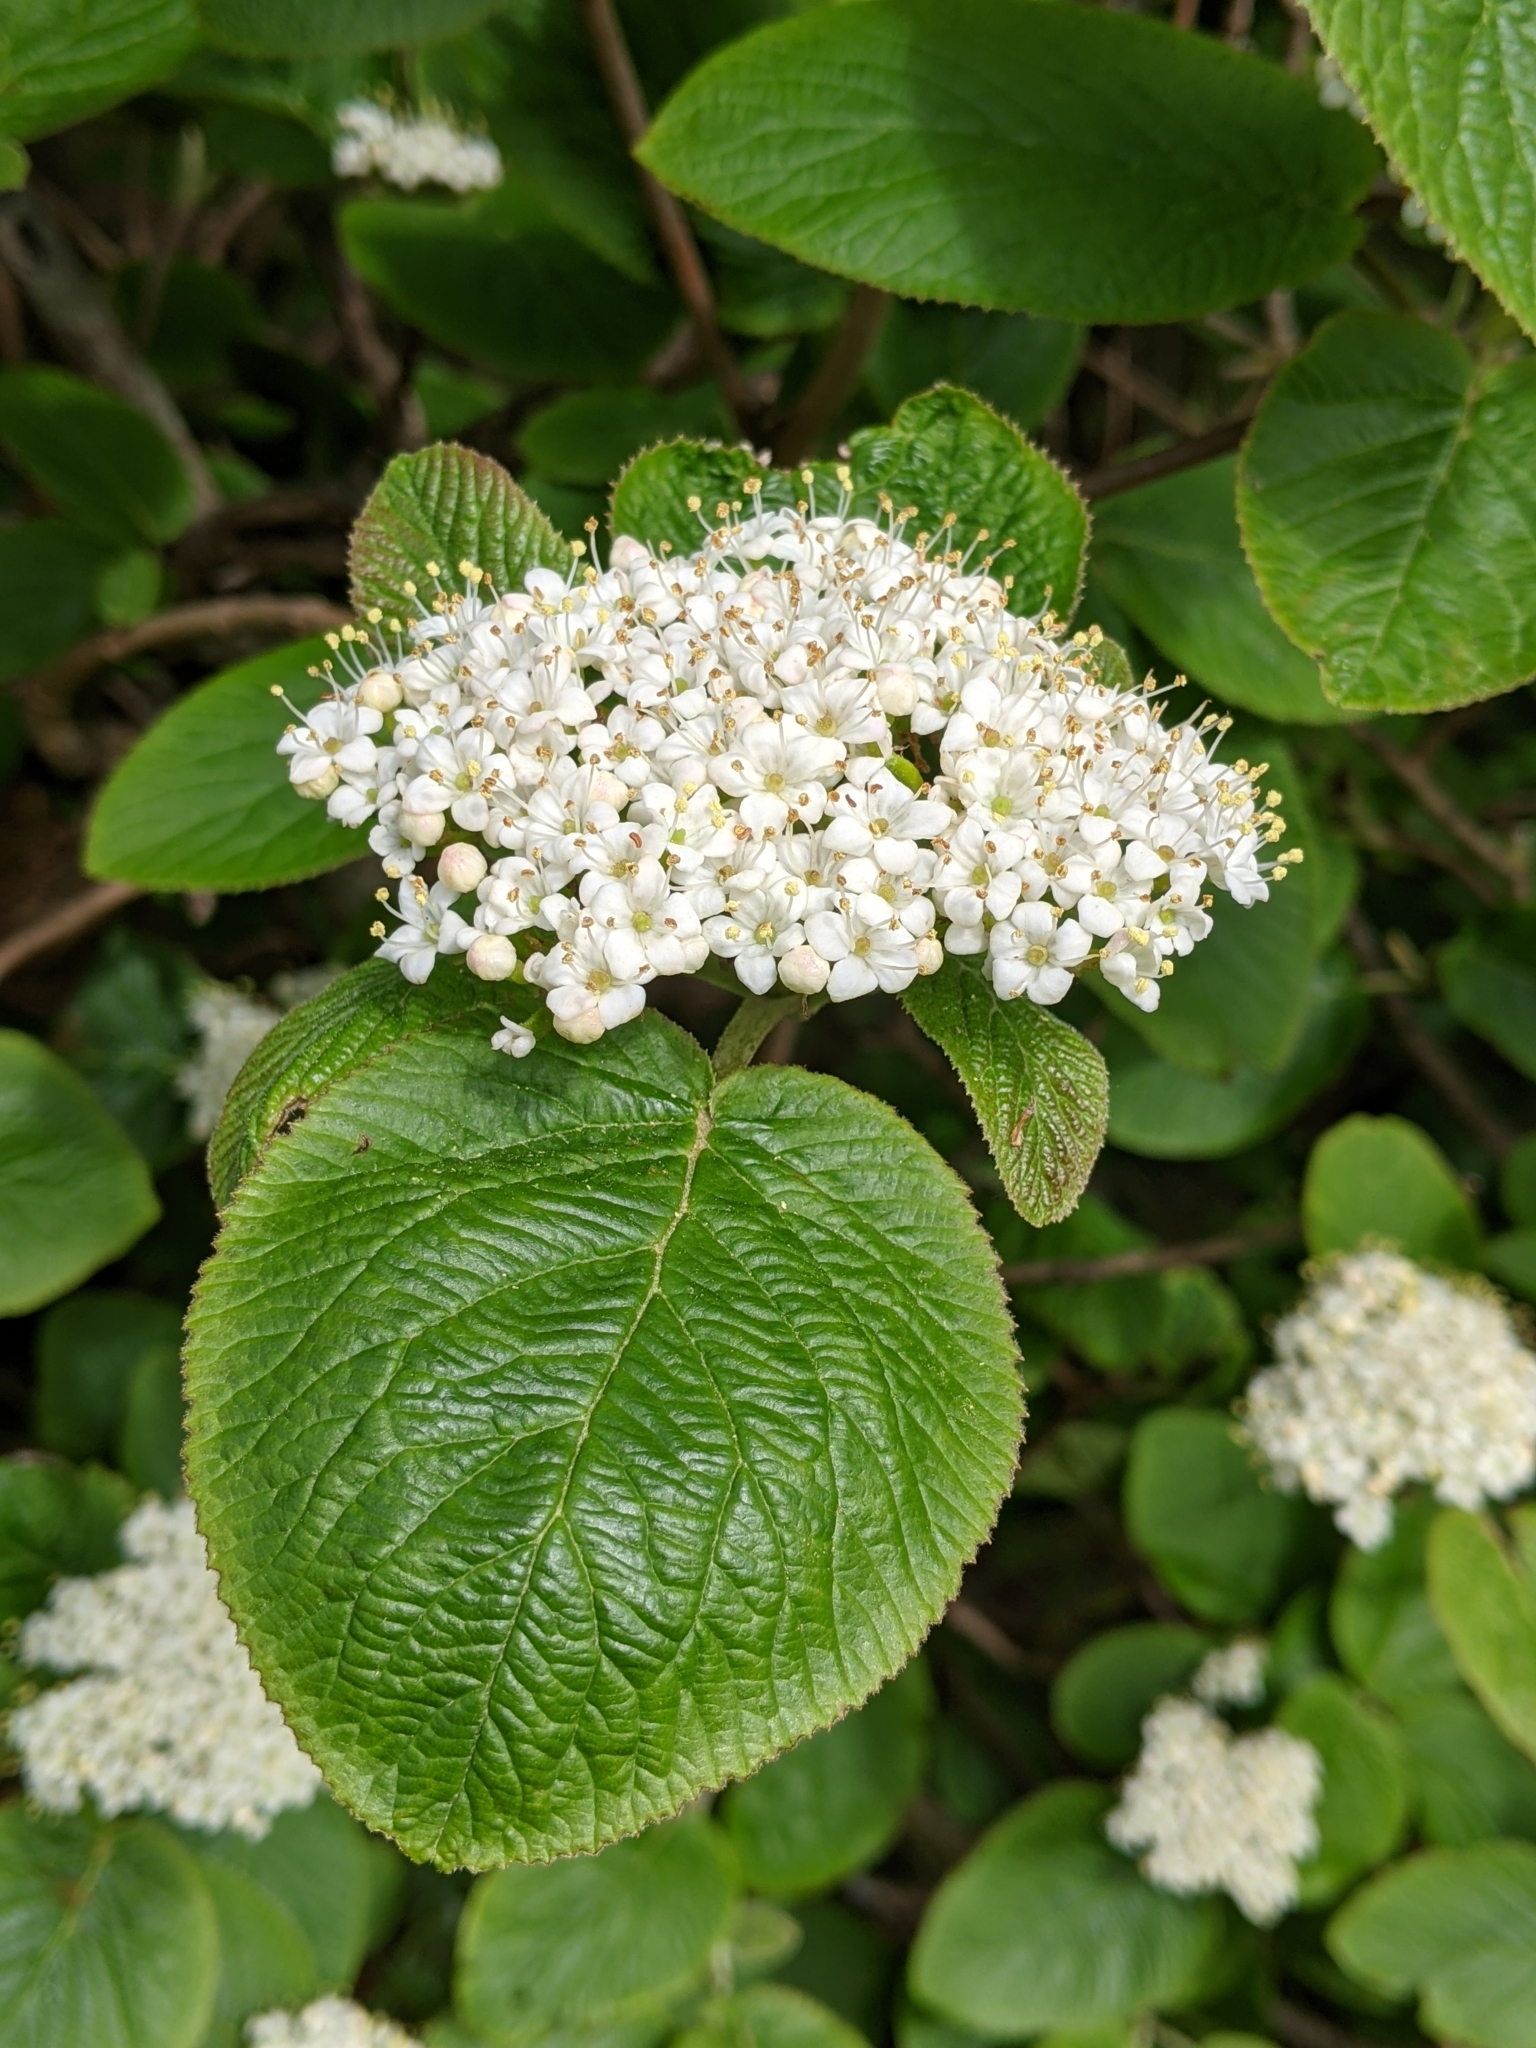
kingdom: Plantae
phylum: Tracheophyta
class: Magnoliopsida
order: Dipsacales
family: Viburnaceae
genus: Viburnum
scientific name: Viburnum lantana
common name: Wayfaring tree
